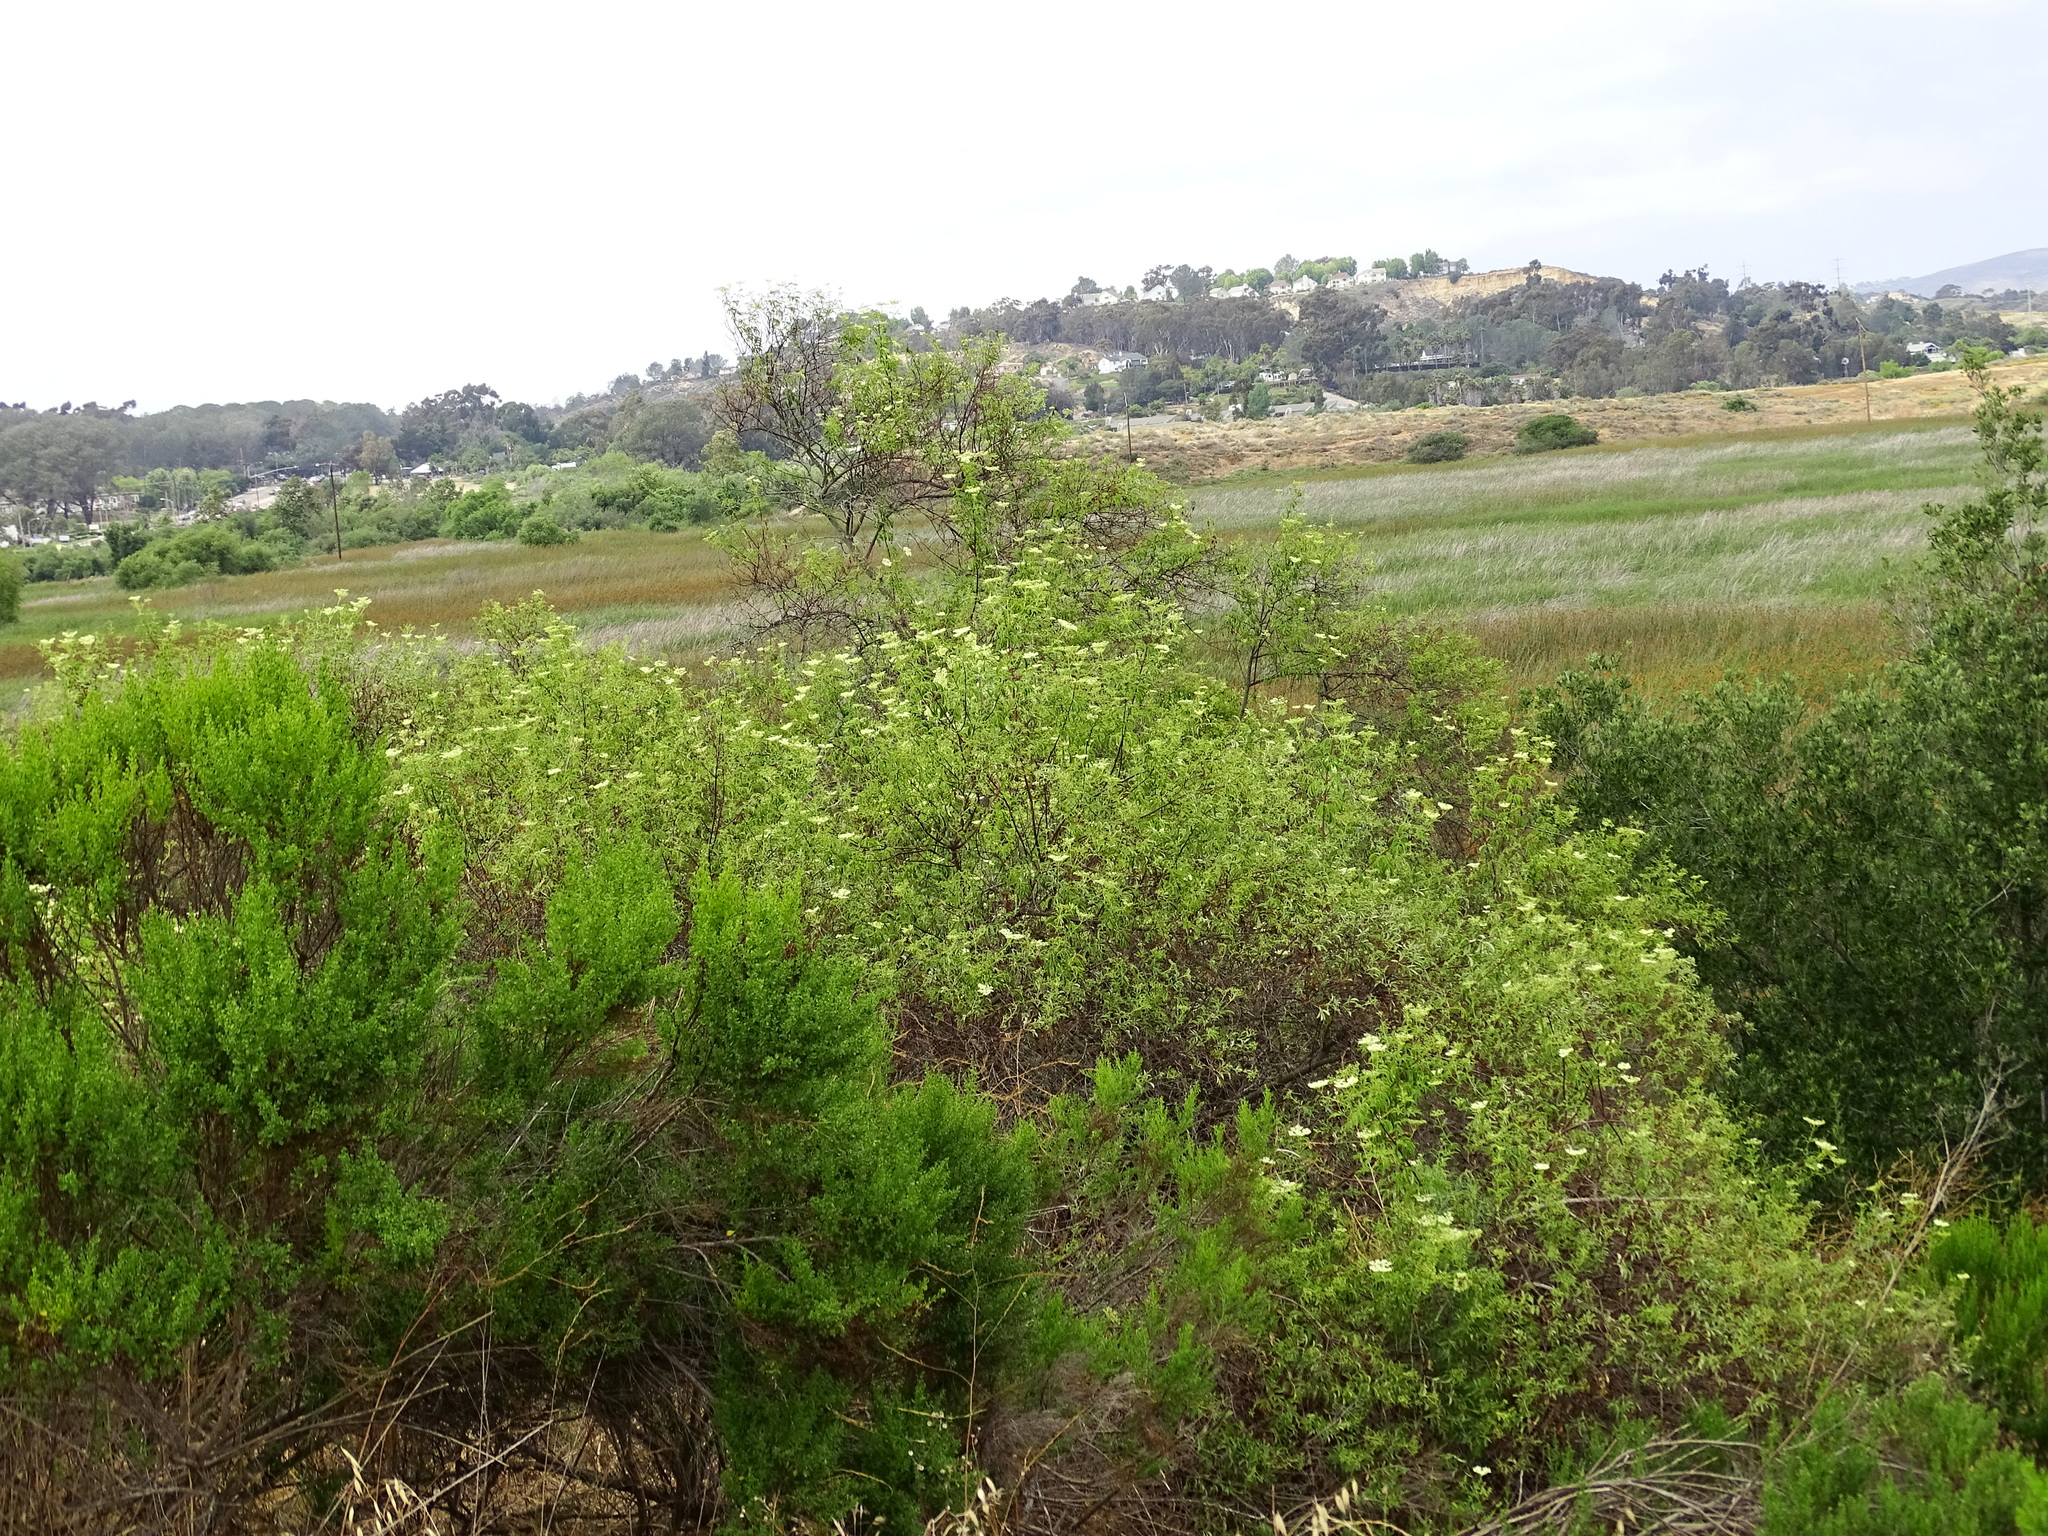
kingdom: Plantae
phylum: Tracheophyta
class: Magnoliopsida
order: Dipsacales
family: Viburnaceae
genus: Sambucus
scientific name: Sambucus cerulea
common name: Blue elder
